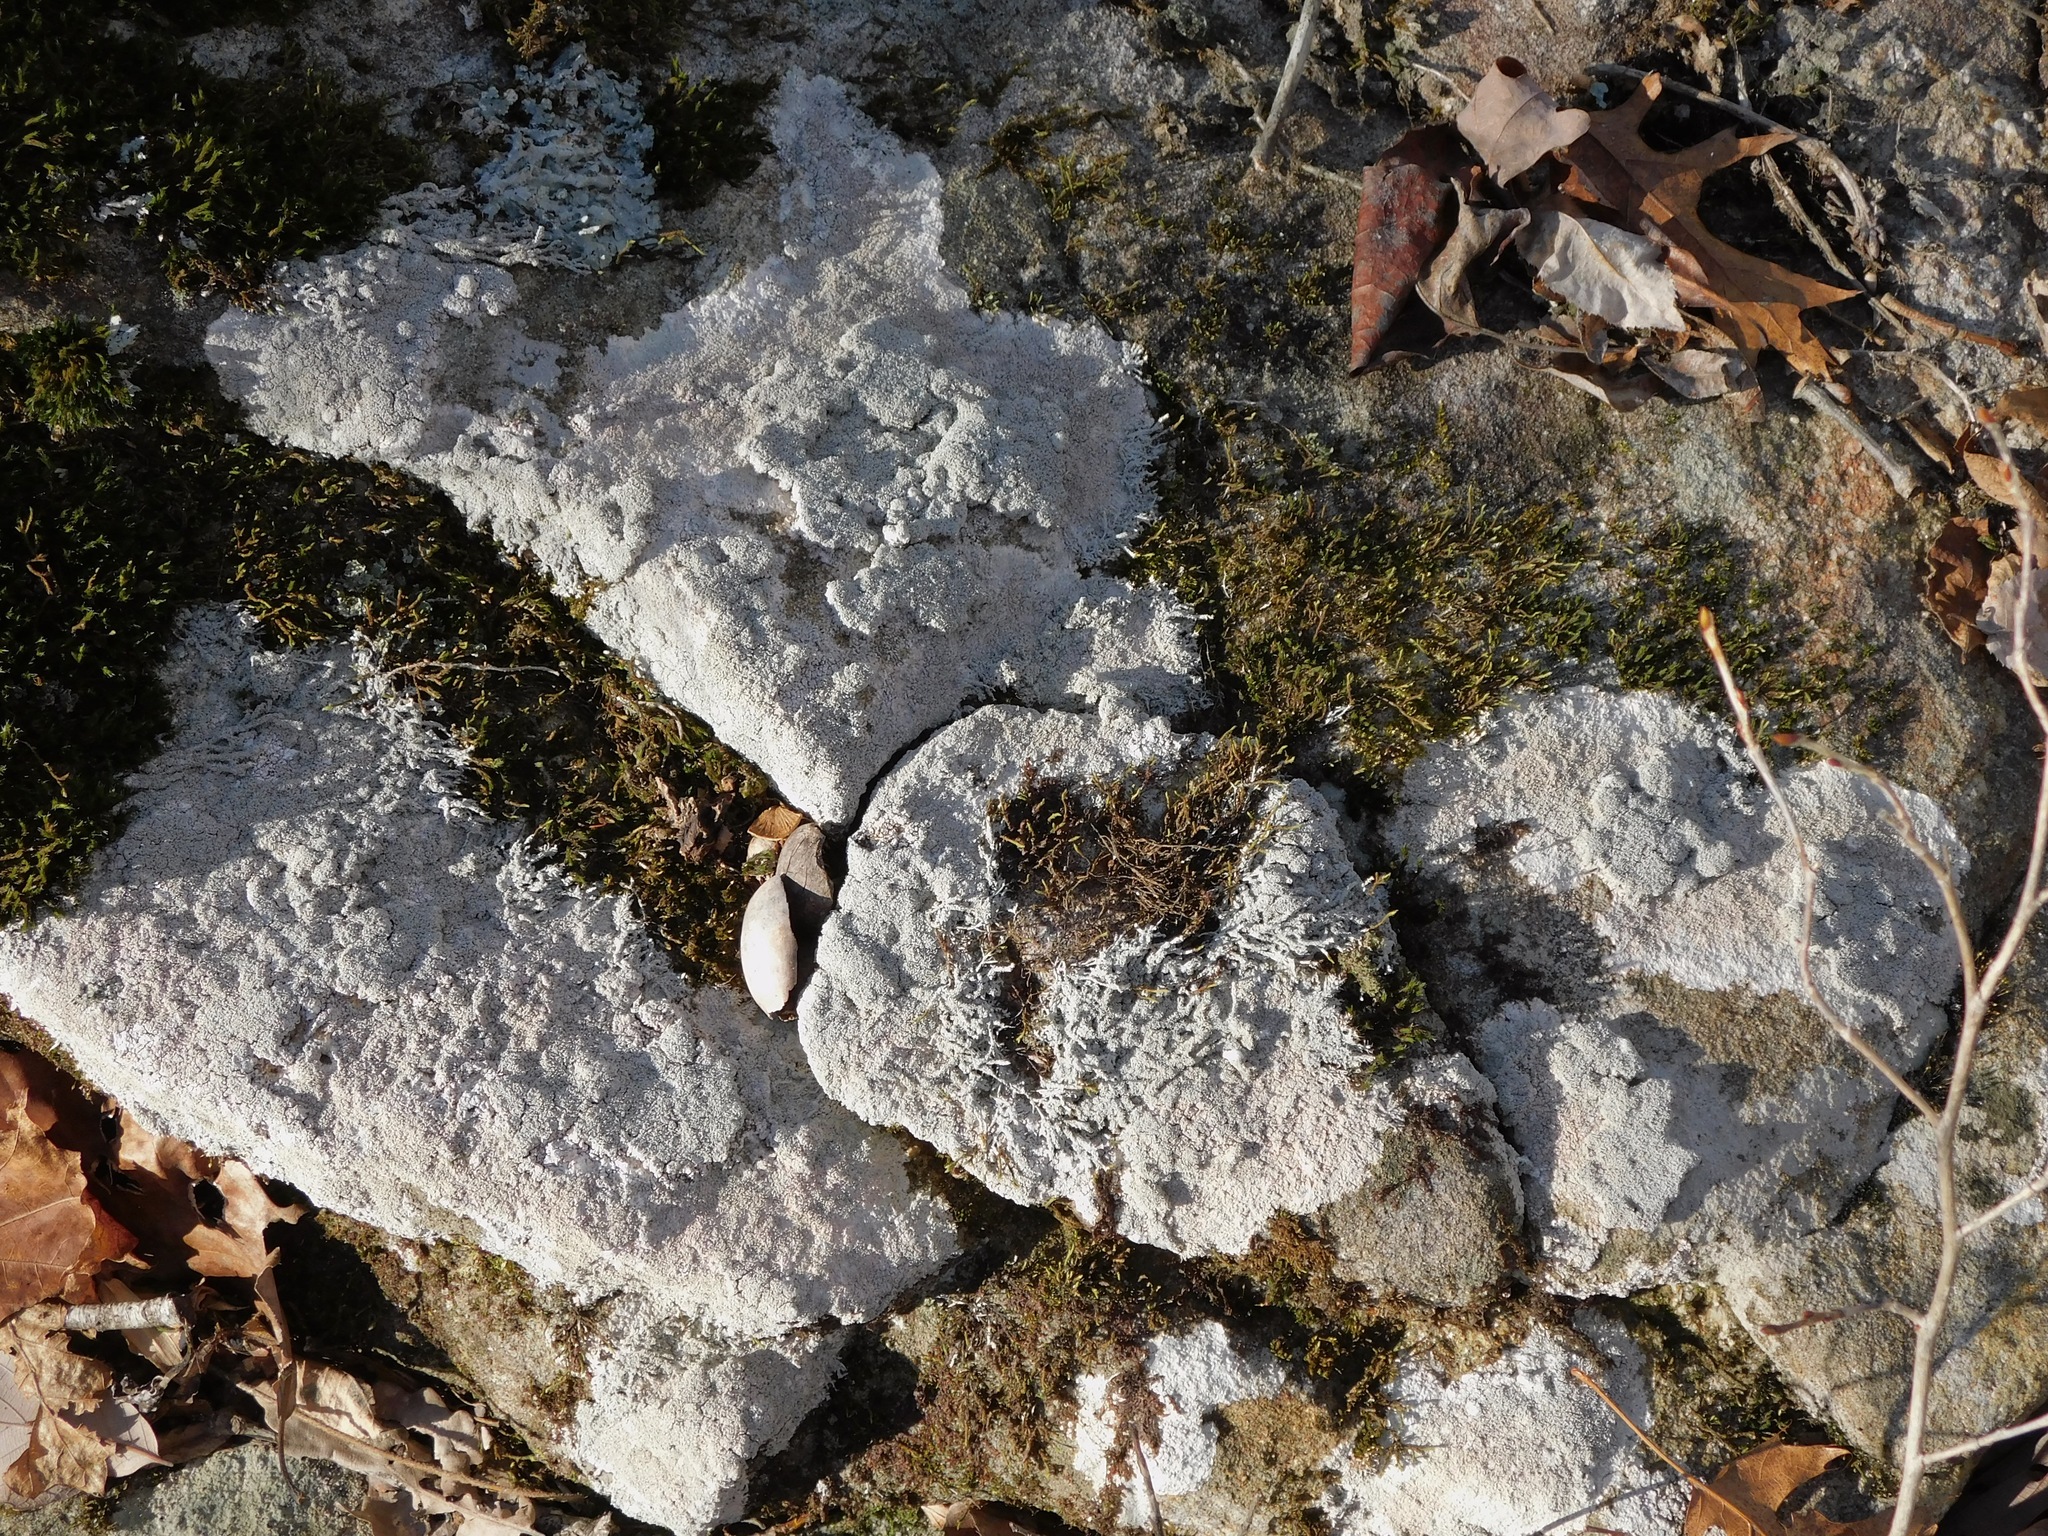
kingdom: Fungi
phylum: Ascomycota
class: Lecanoromycetes
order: Pertusariales
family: Ochrolechiaceae
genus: Ochrolechia
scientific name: Ochrolechia yasudae
